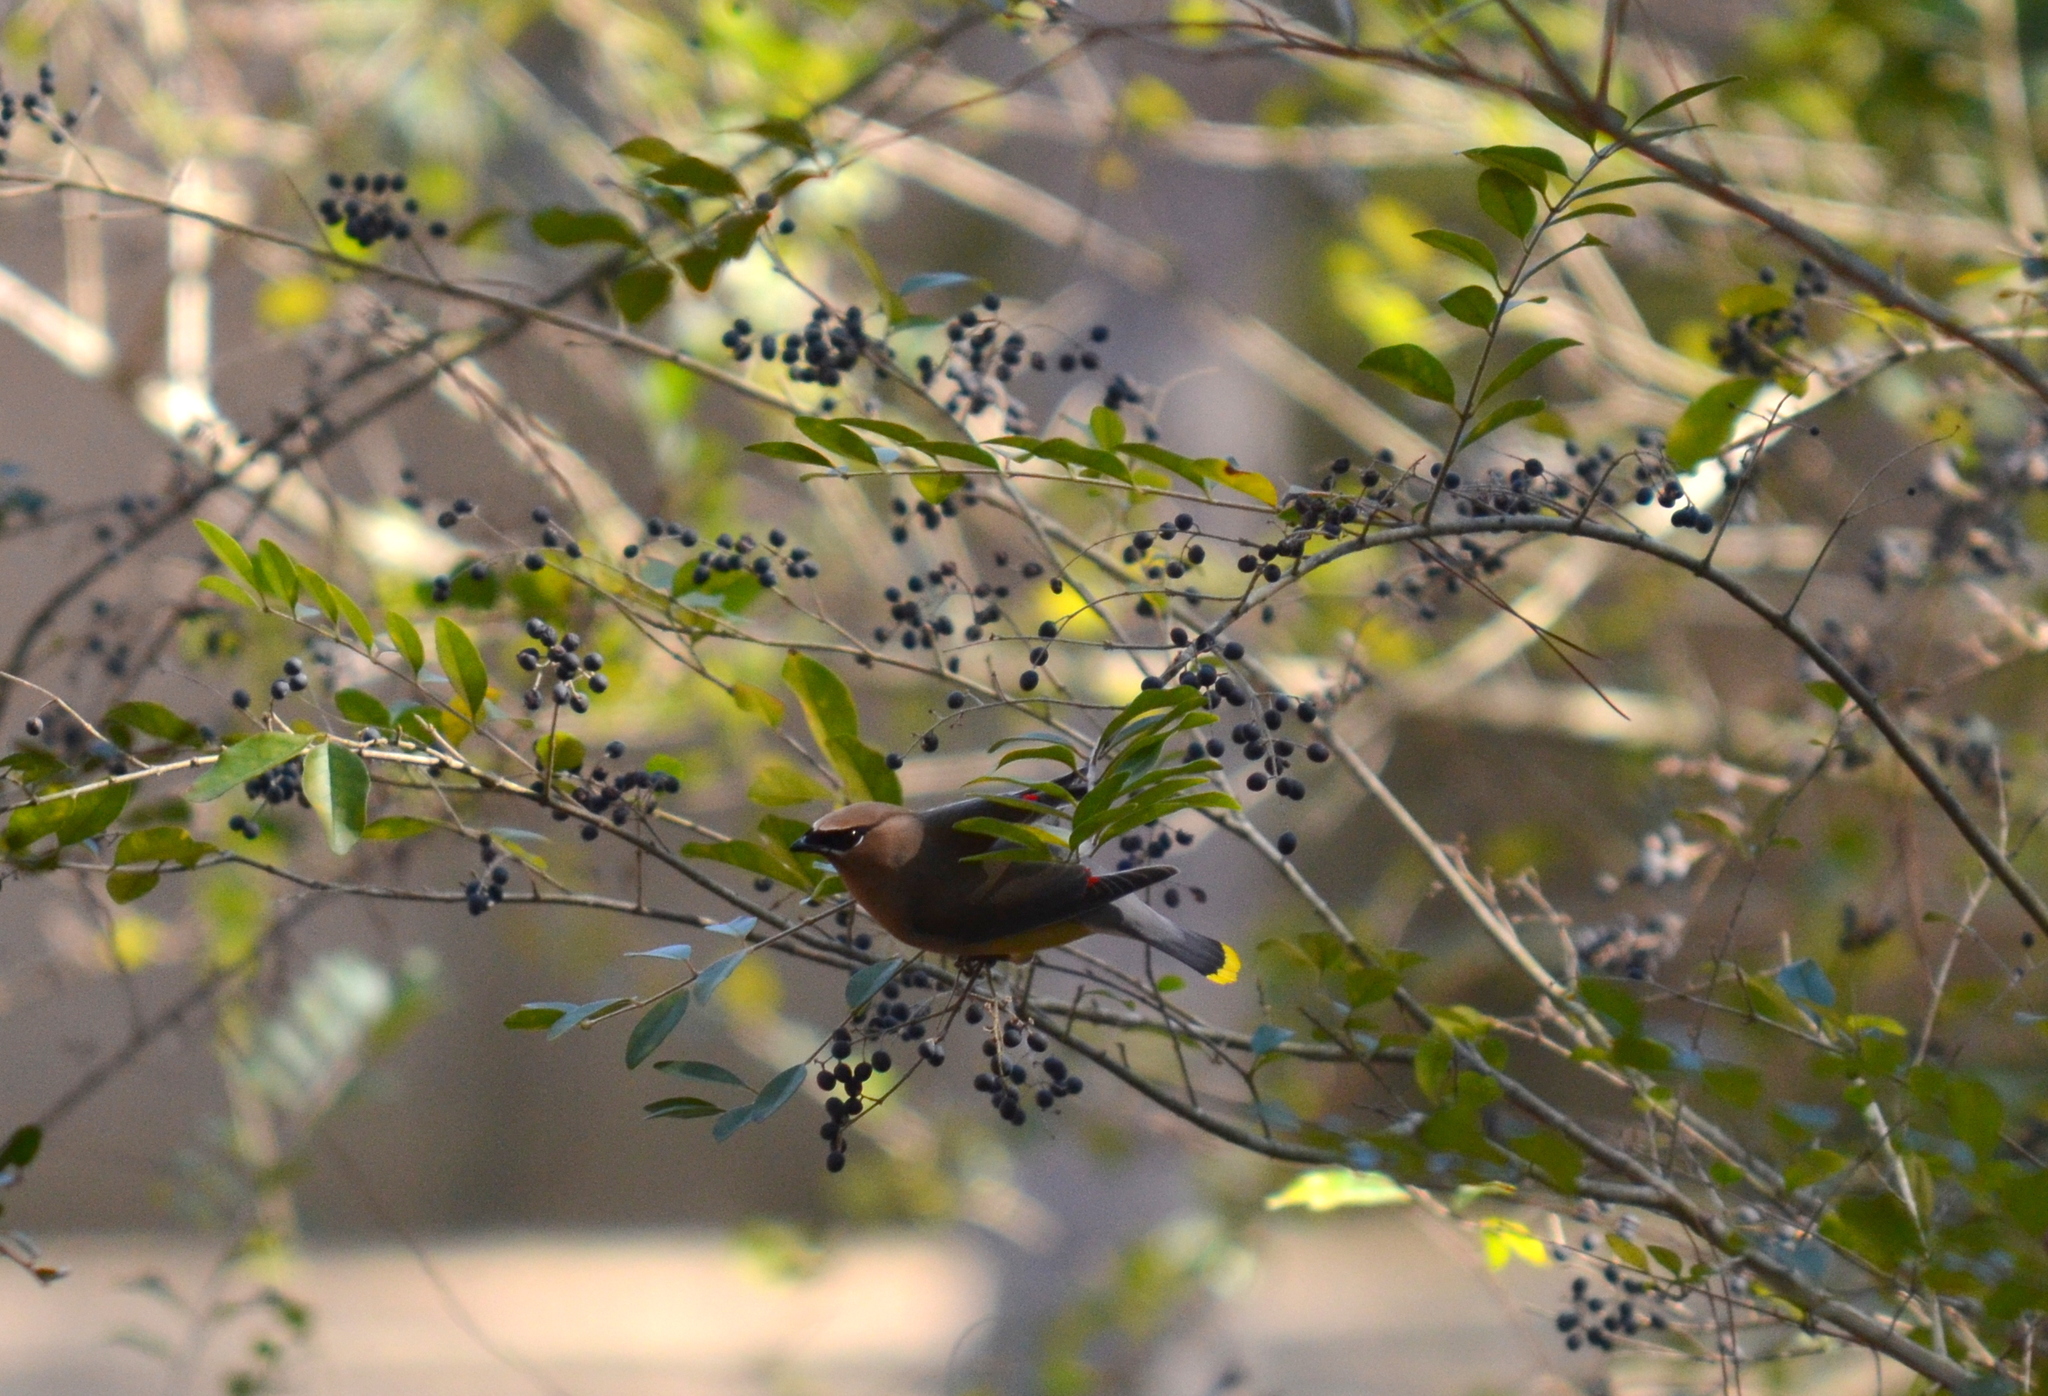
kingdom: Animalia
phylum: Chordata
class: Aves
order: Passeriformes
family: Bombycillidae
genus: Bombycilla
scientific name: Bombycilla cedrorum
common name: Cedar waxwing
